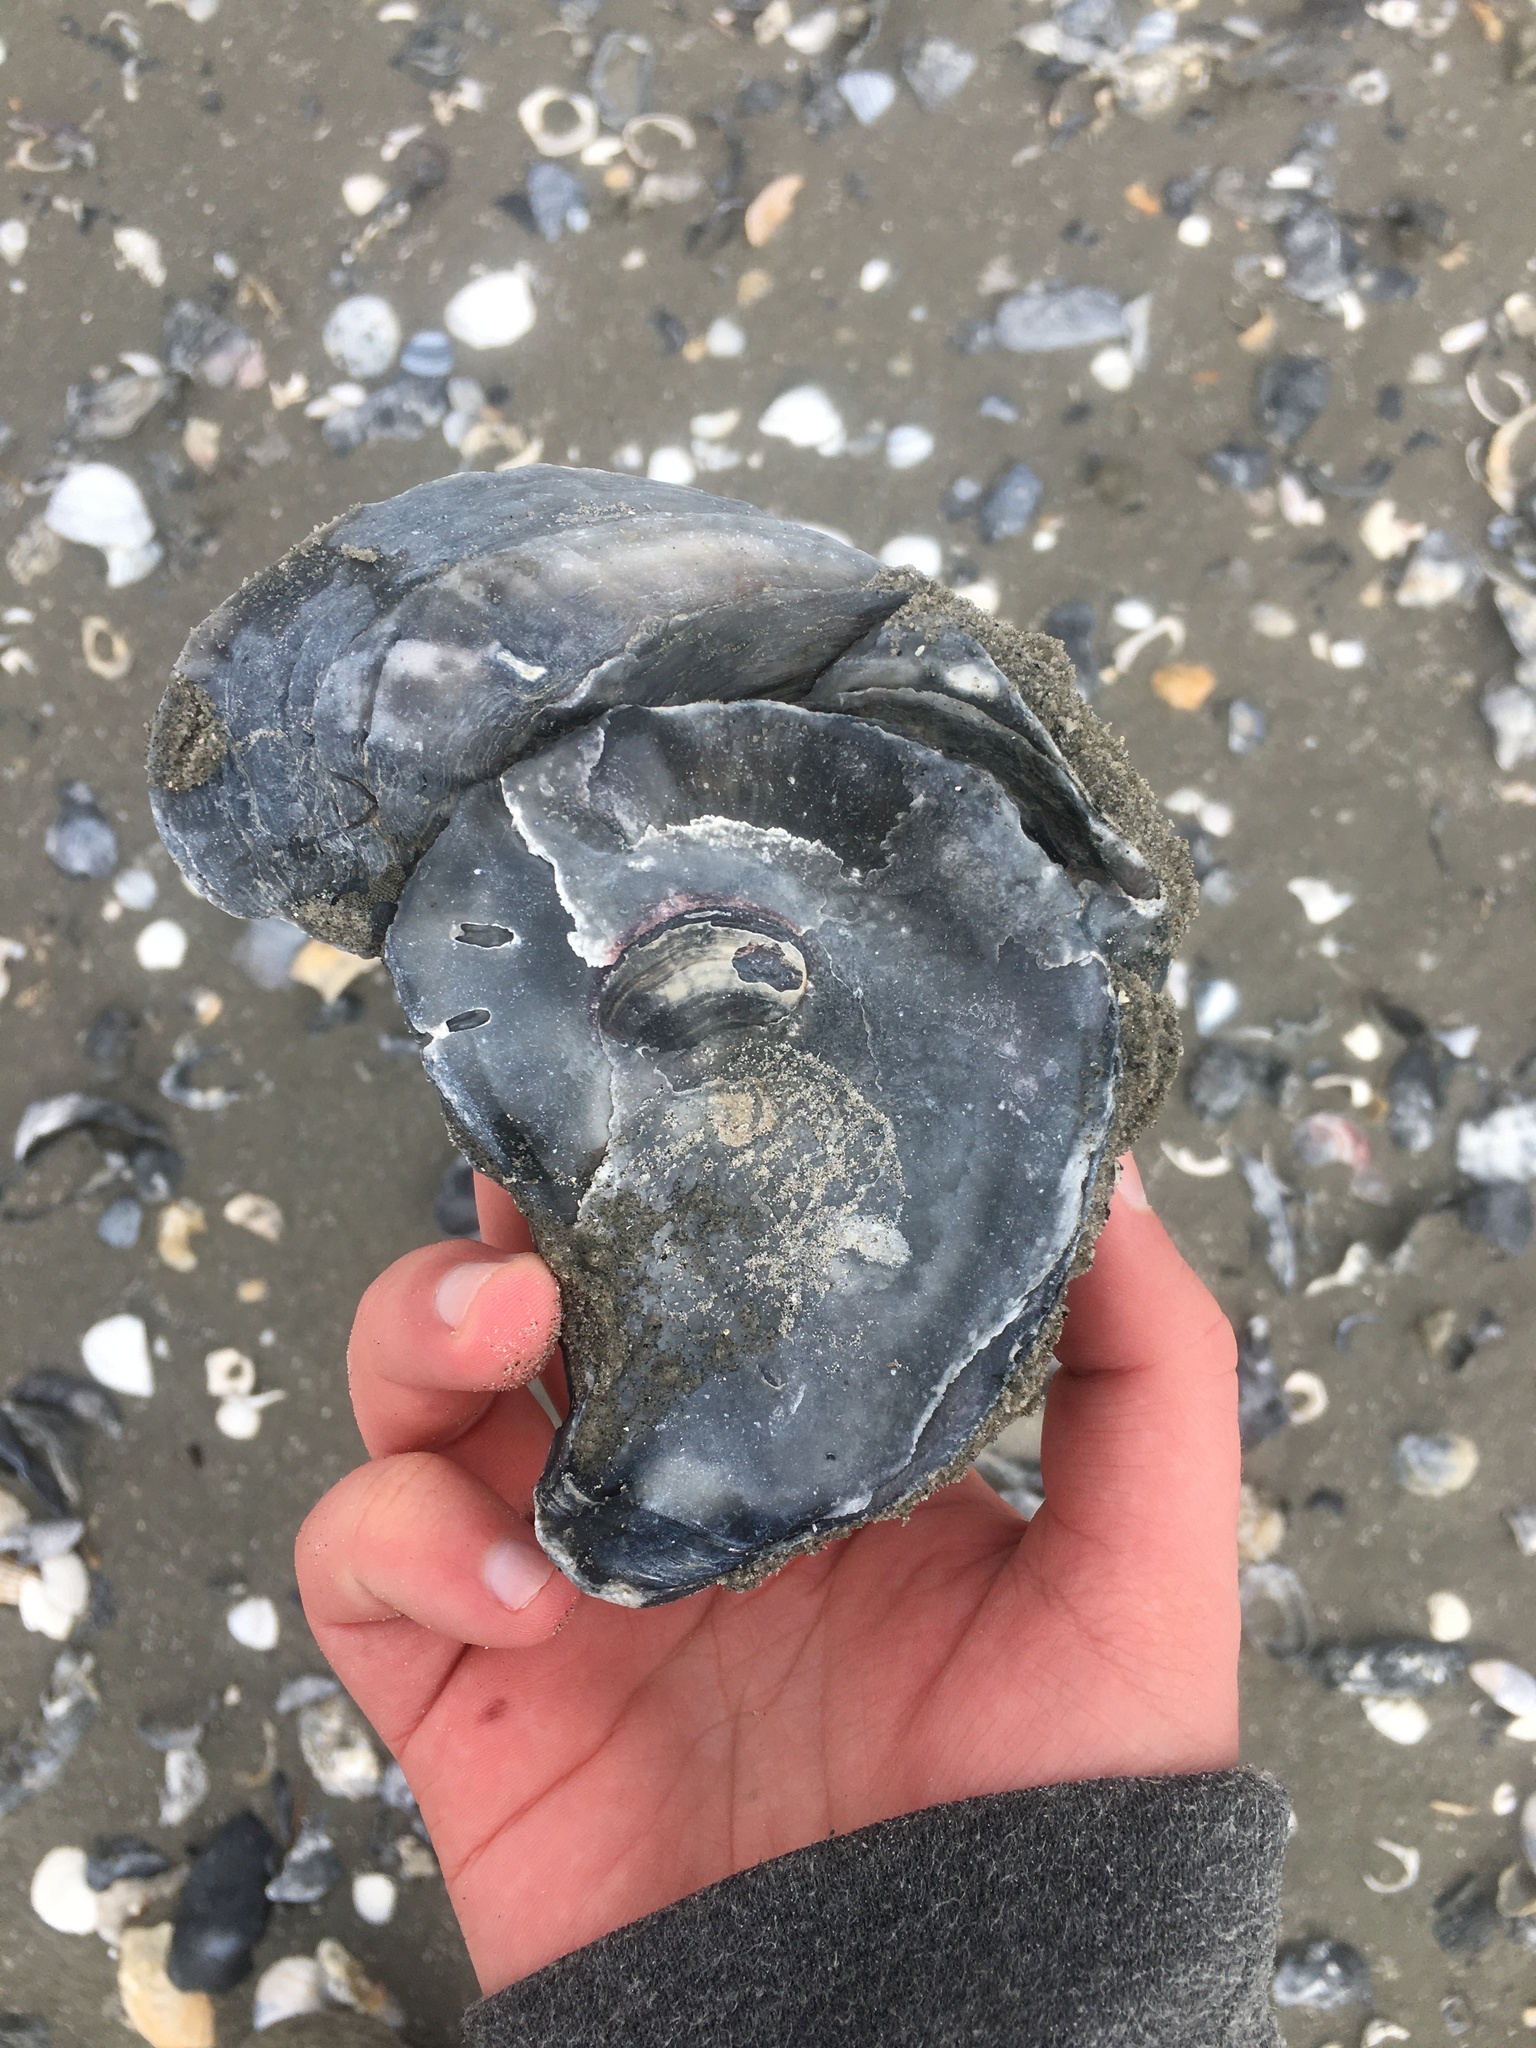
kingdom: Animalia
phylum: Mollusca
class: Bivalvia
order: Ostreida
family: Ostreidae
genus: Crassostrea
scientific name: Crassostrea virginica
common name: American oyster
